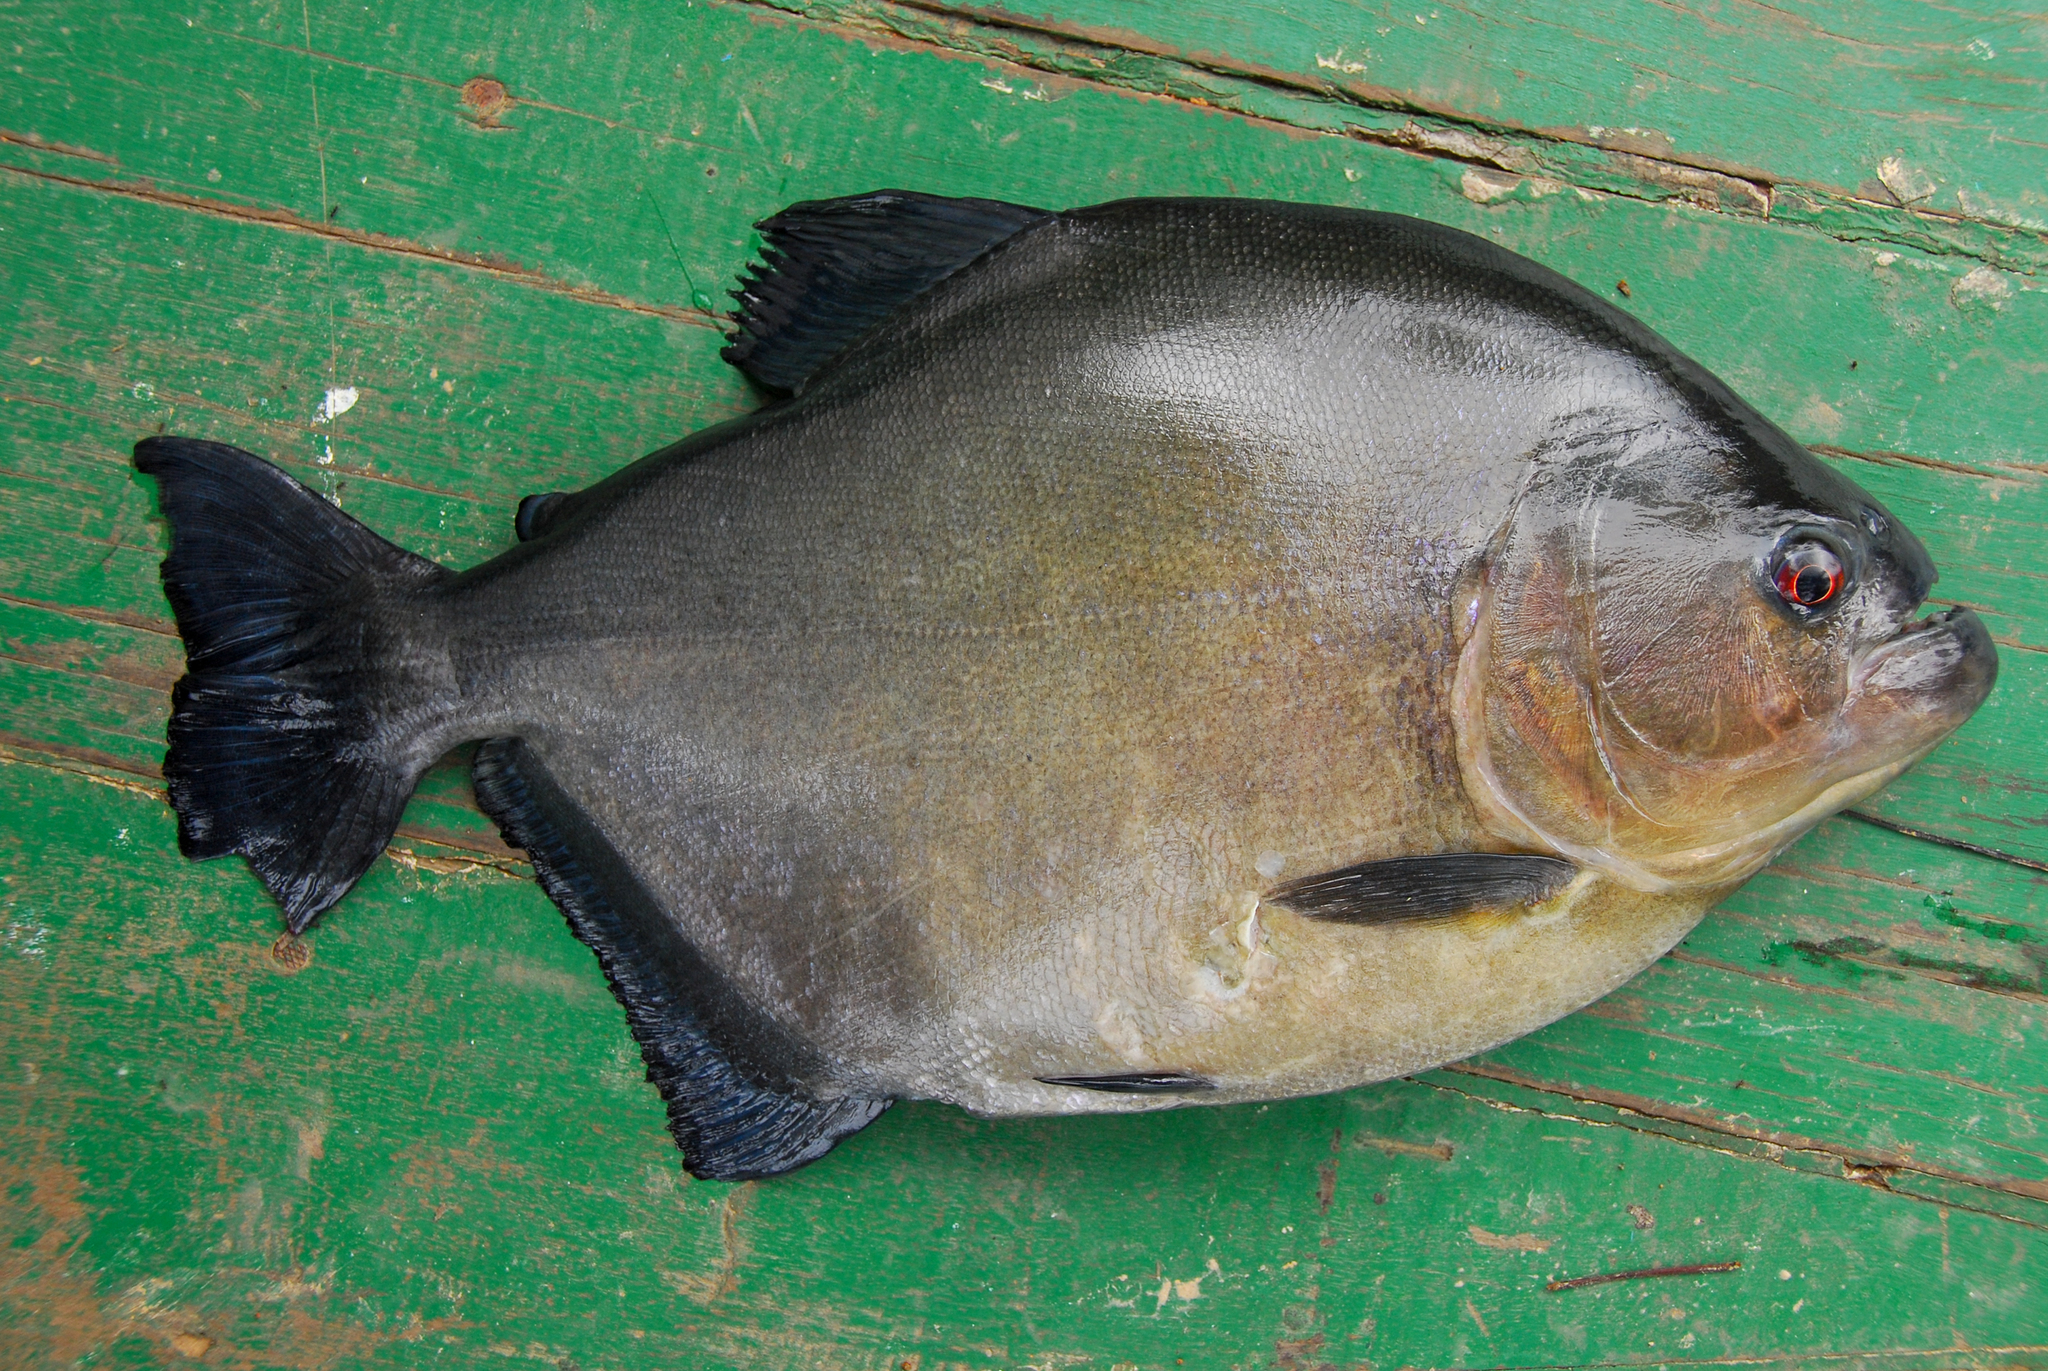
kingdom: Animalia
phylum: Chordata
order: Characiformes
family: Serrasalmidae
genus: Serrasalmus
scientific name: Serrasalmus rhombeus
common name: Redeye piranha
